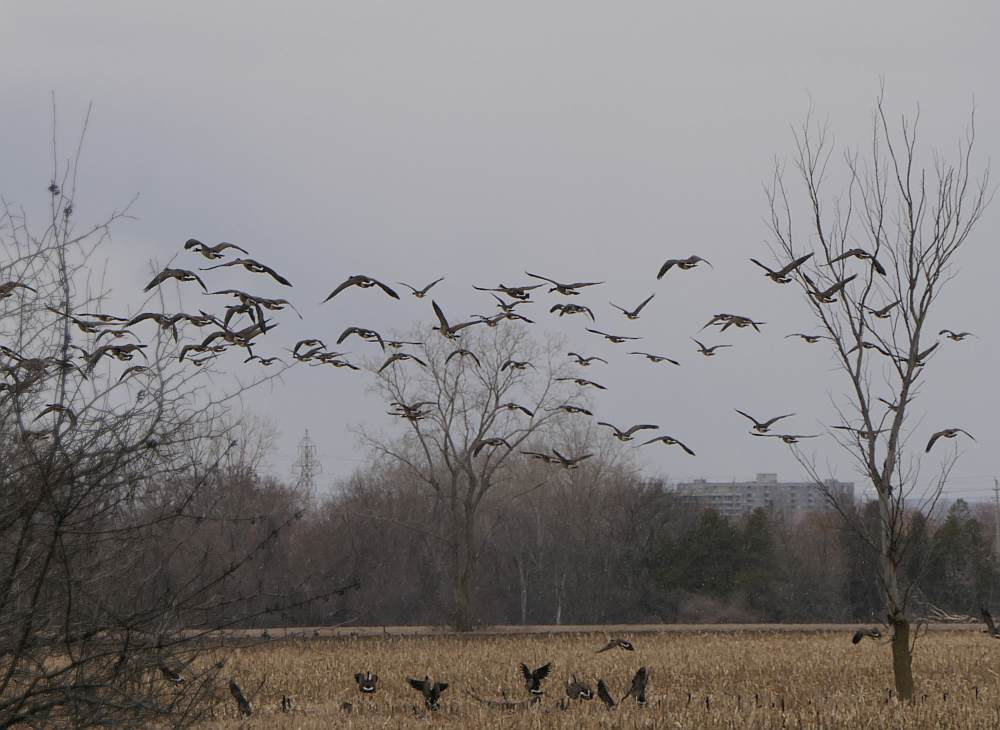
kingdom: Animalia
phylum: Chordata
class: Aves
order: Anseriformes
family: Anatidae
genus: Branta
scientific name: Branta canadensis
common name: Canada goose
